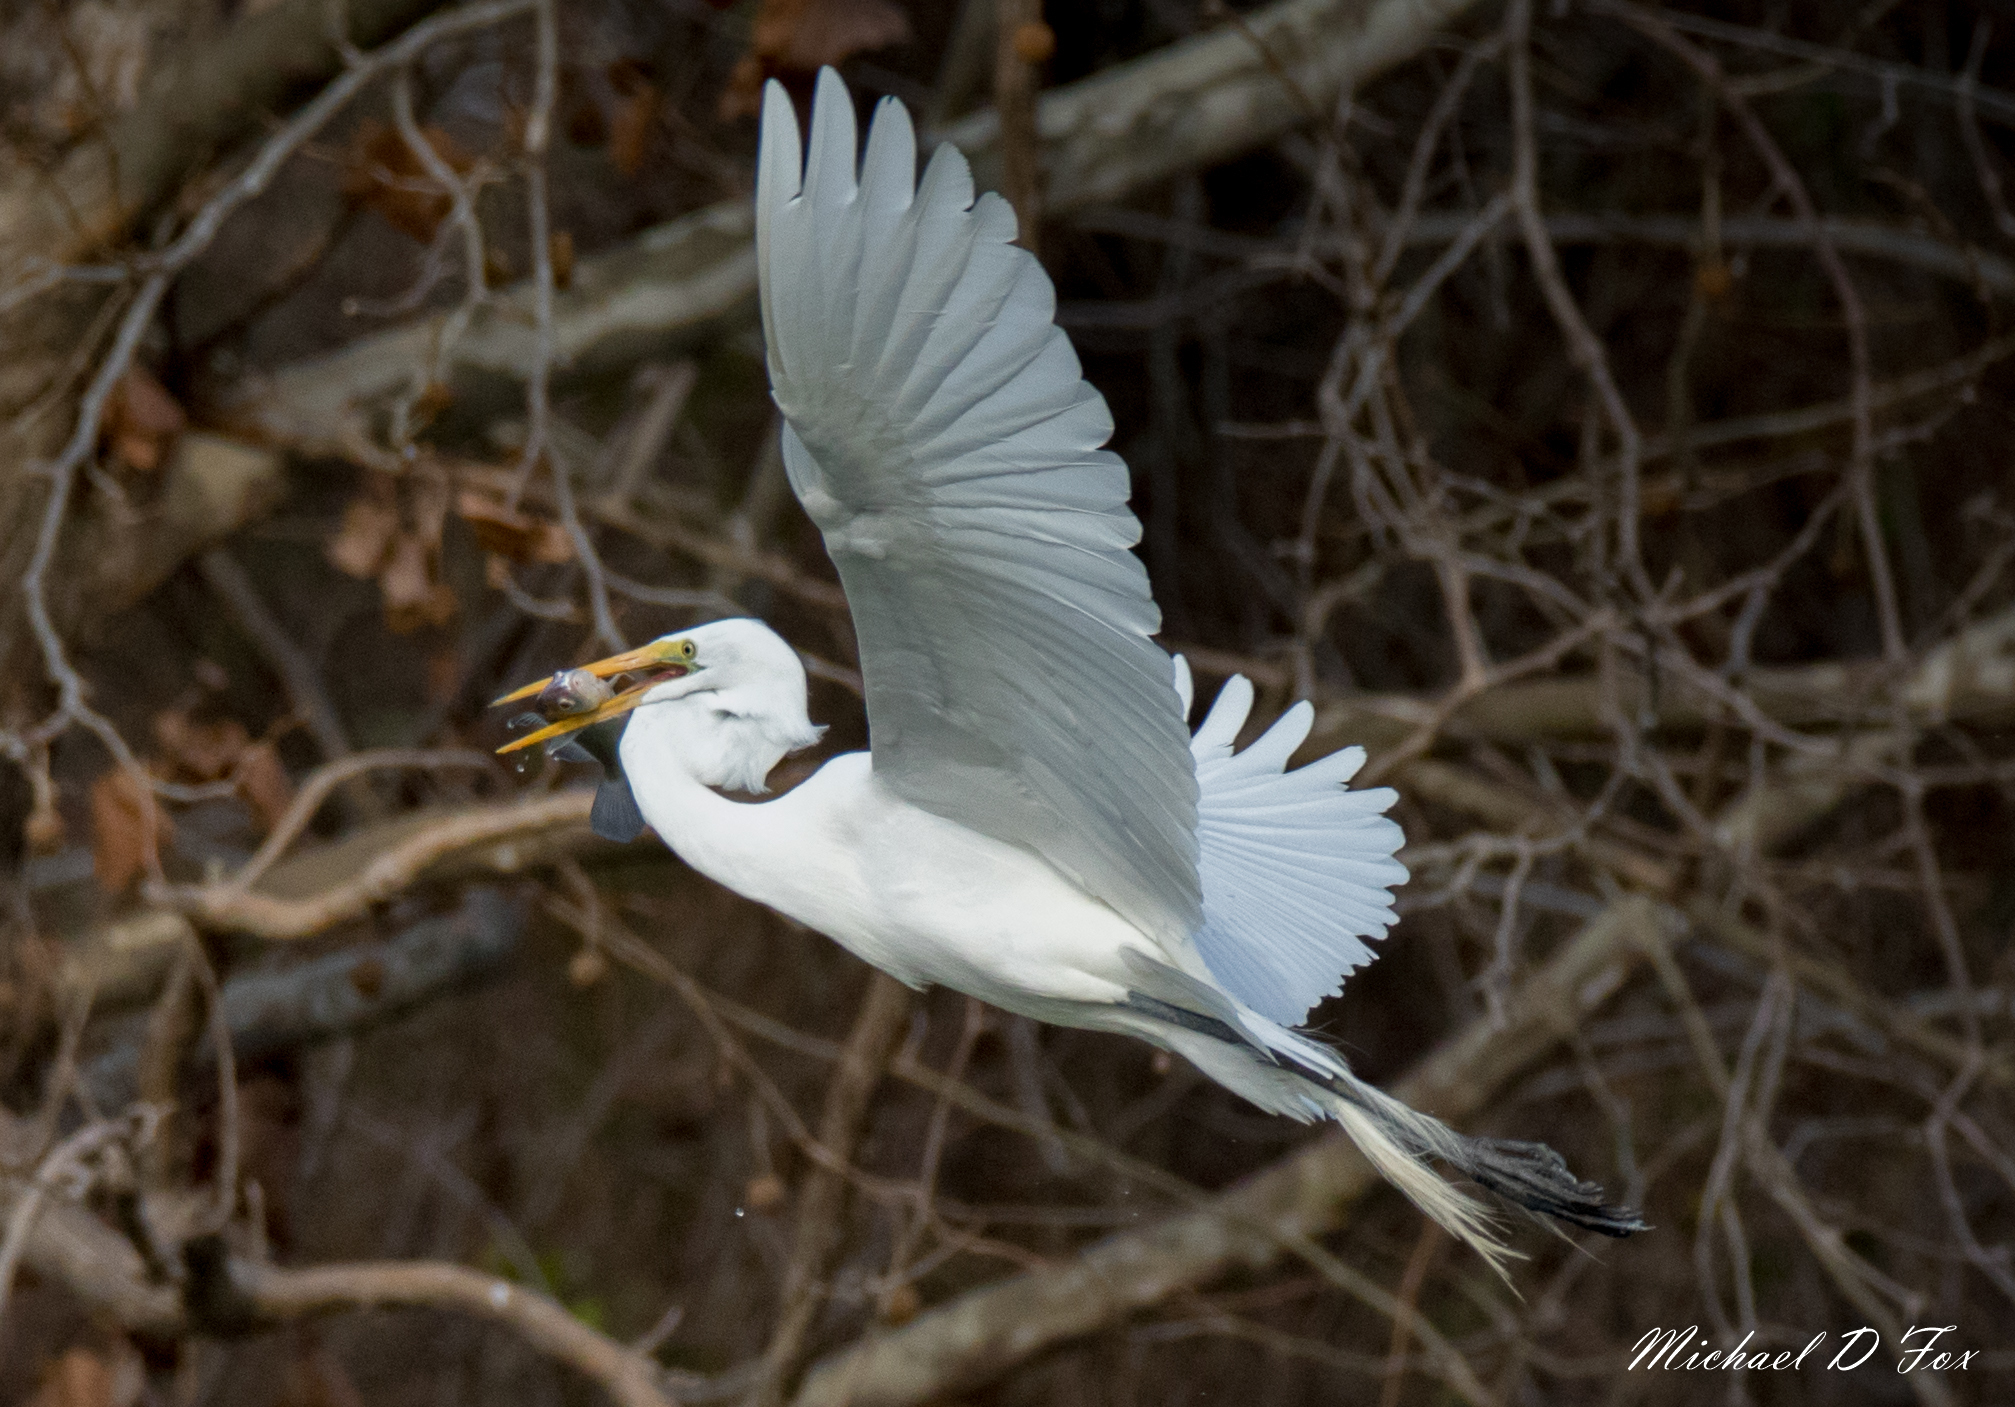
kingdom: Animalia
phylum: Chordata
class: Aves
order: Pelecaniformes
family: Ardeidae
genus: Ardea
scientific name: Ardea alba
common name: Great egret
